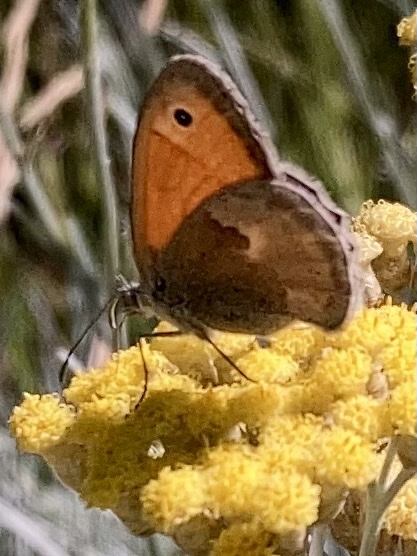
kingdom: Animalia
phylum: Arthropoda
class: Insecta
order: Lepidoptera
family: Nymphalidae
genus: Coenonympha
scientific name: Coenonympha pamphilus
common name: Small heath
